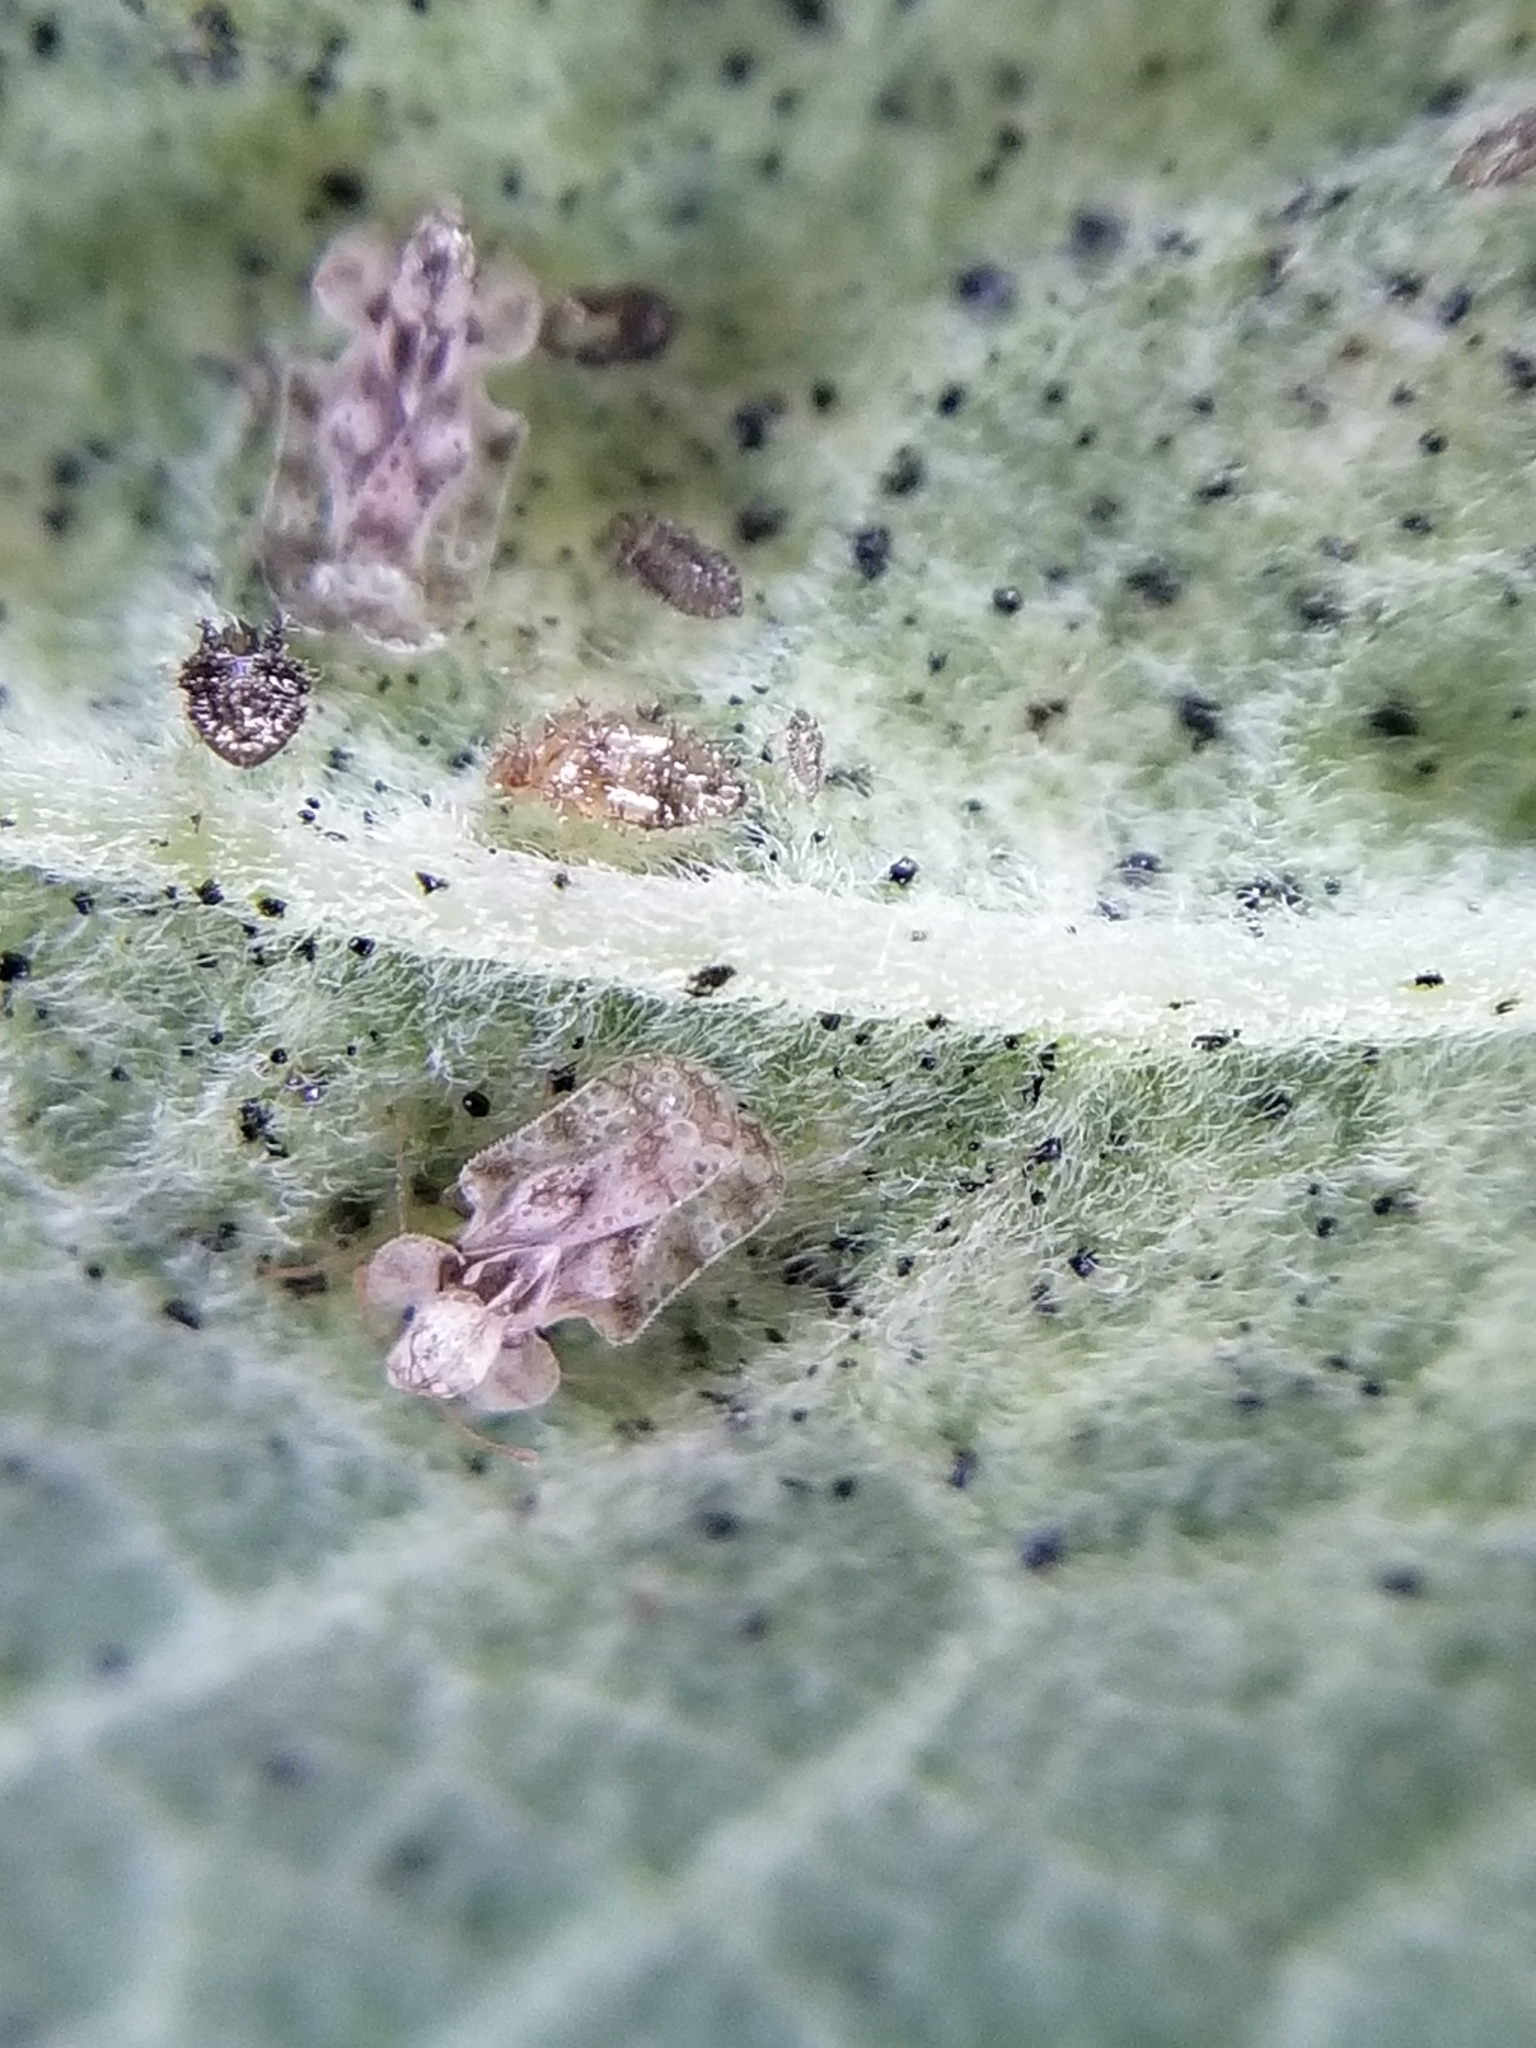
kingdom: Animalia
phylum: Arthropoda
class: Insecta
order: Hemiptera
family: Tingidae
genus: Corythucha
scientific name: Corythucha marmorata
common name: Chrysanthemum lace bug
